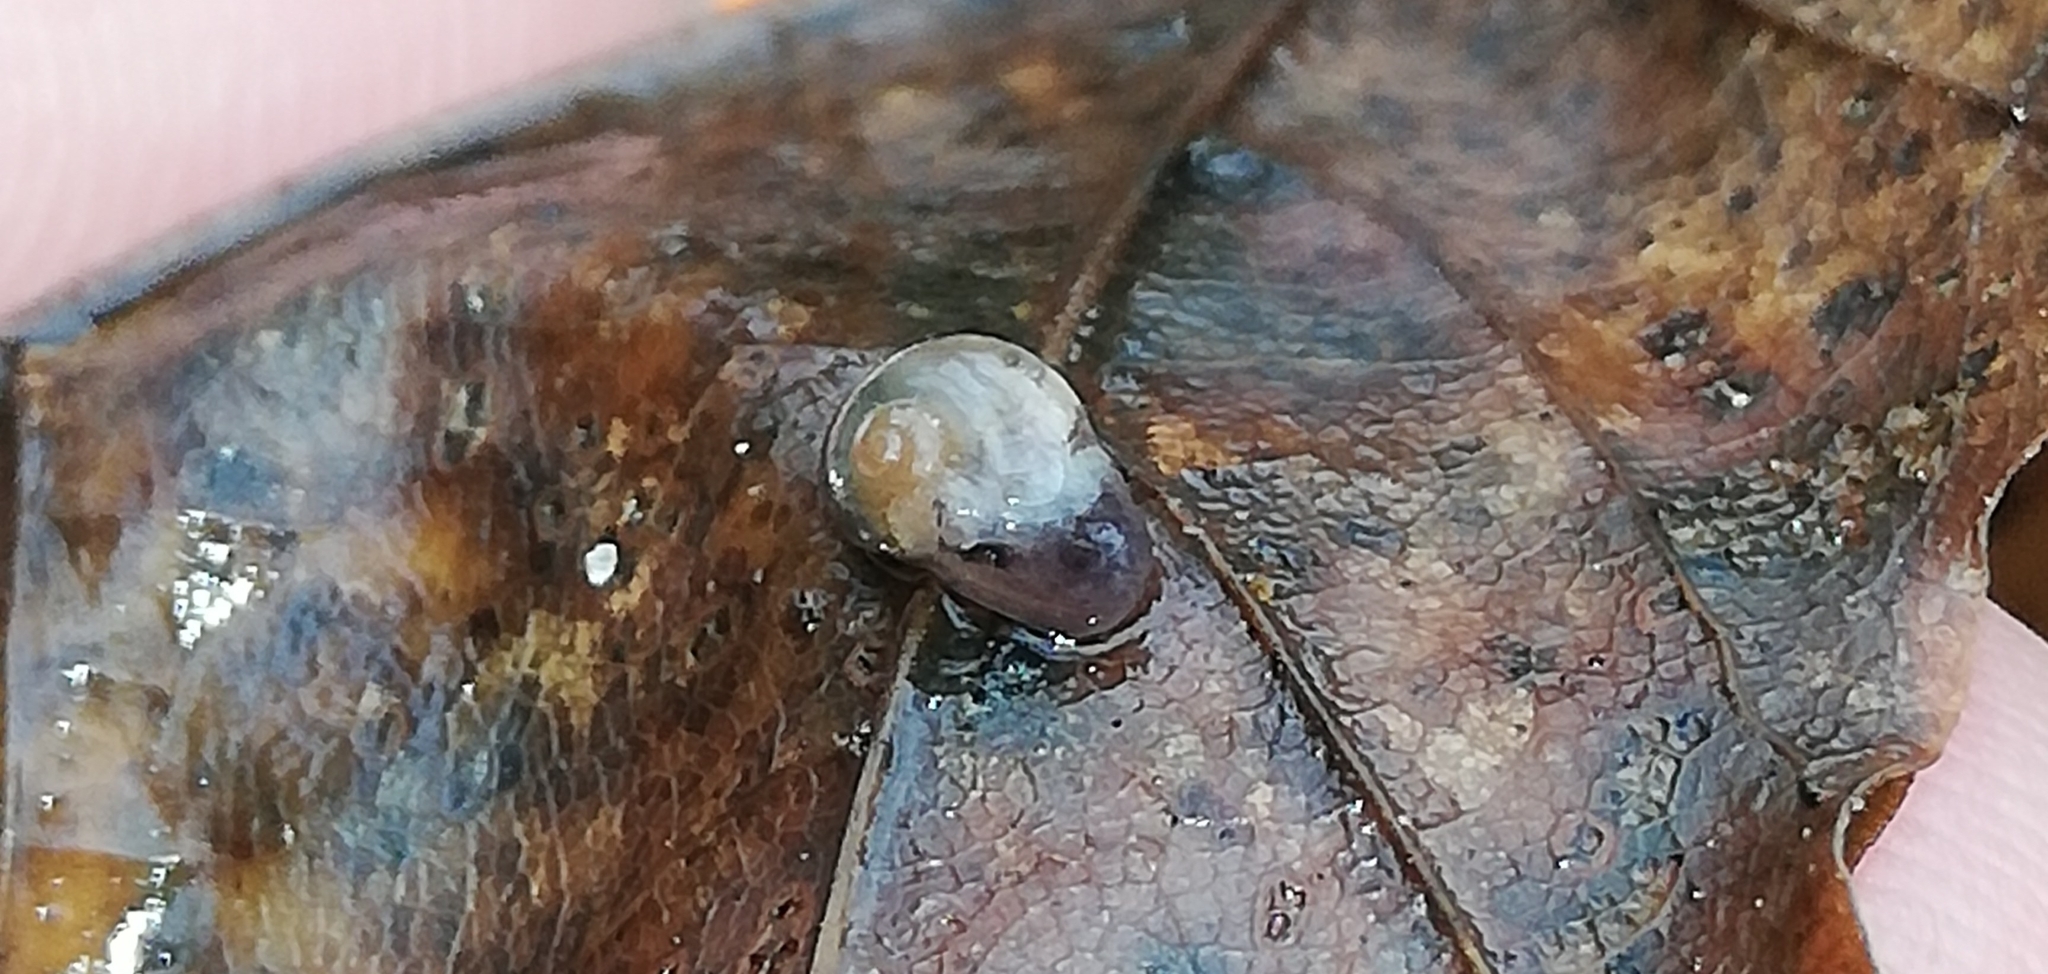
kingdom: Animalia
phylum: Mollusca
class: Gastropoda
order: Stylommatophora
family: Vitrinidae
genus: Vitrina
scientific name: Vitrina pellucida
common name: Pellucid glass snail
